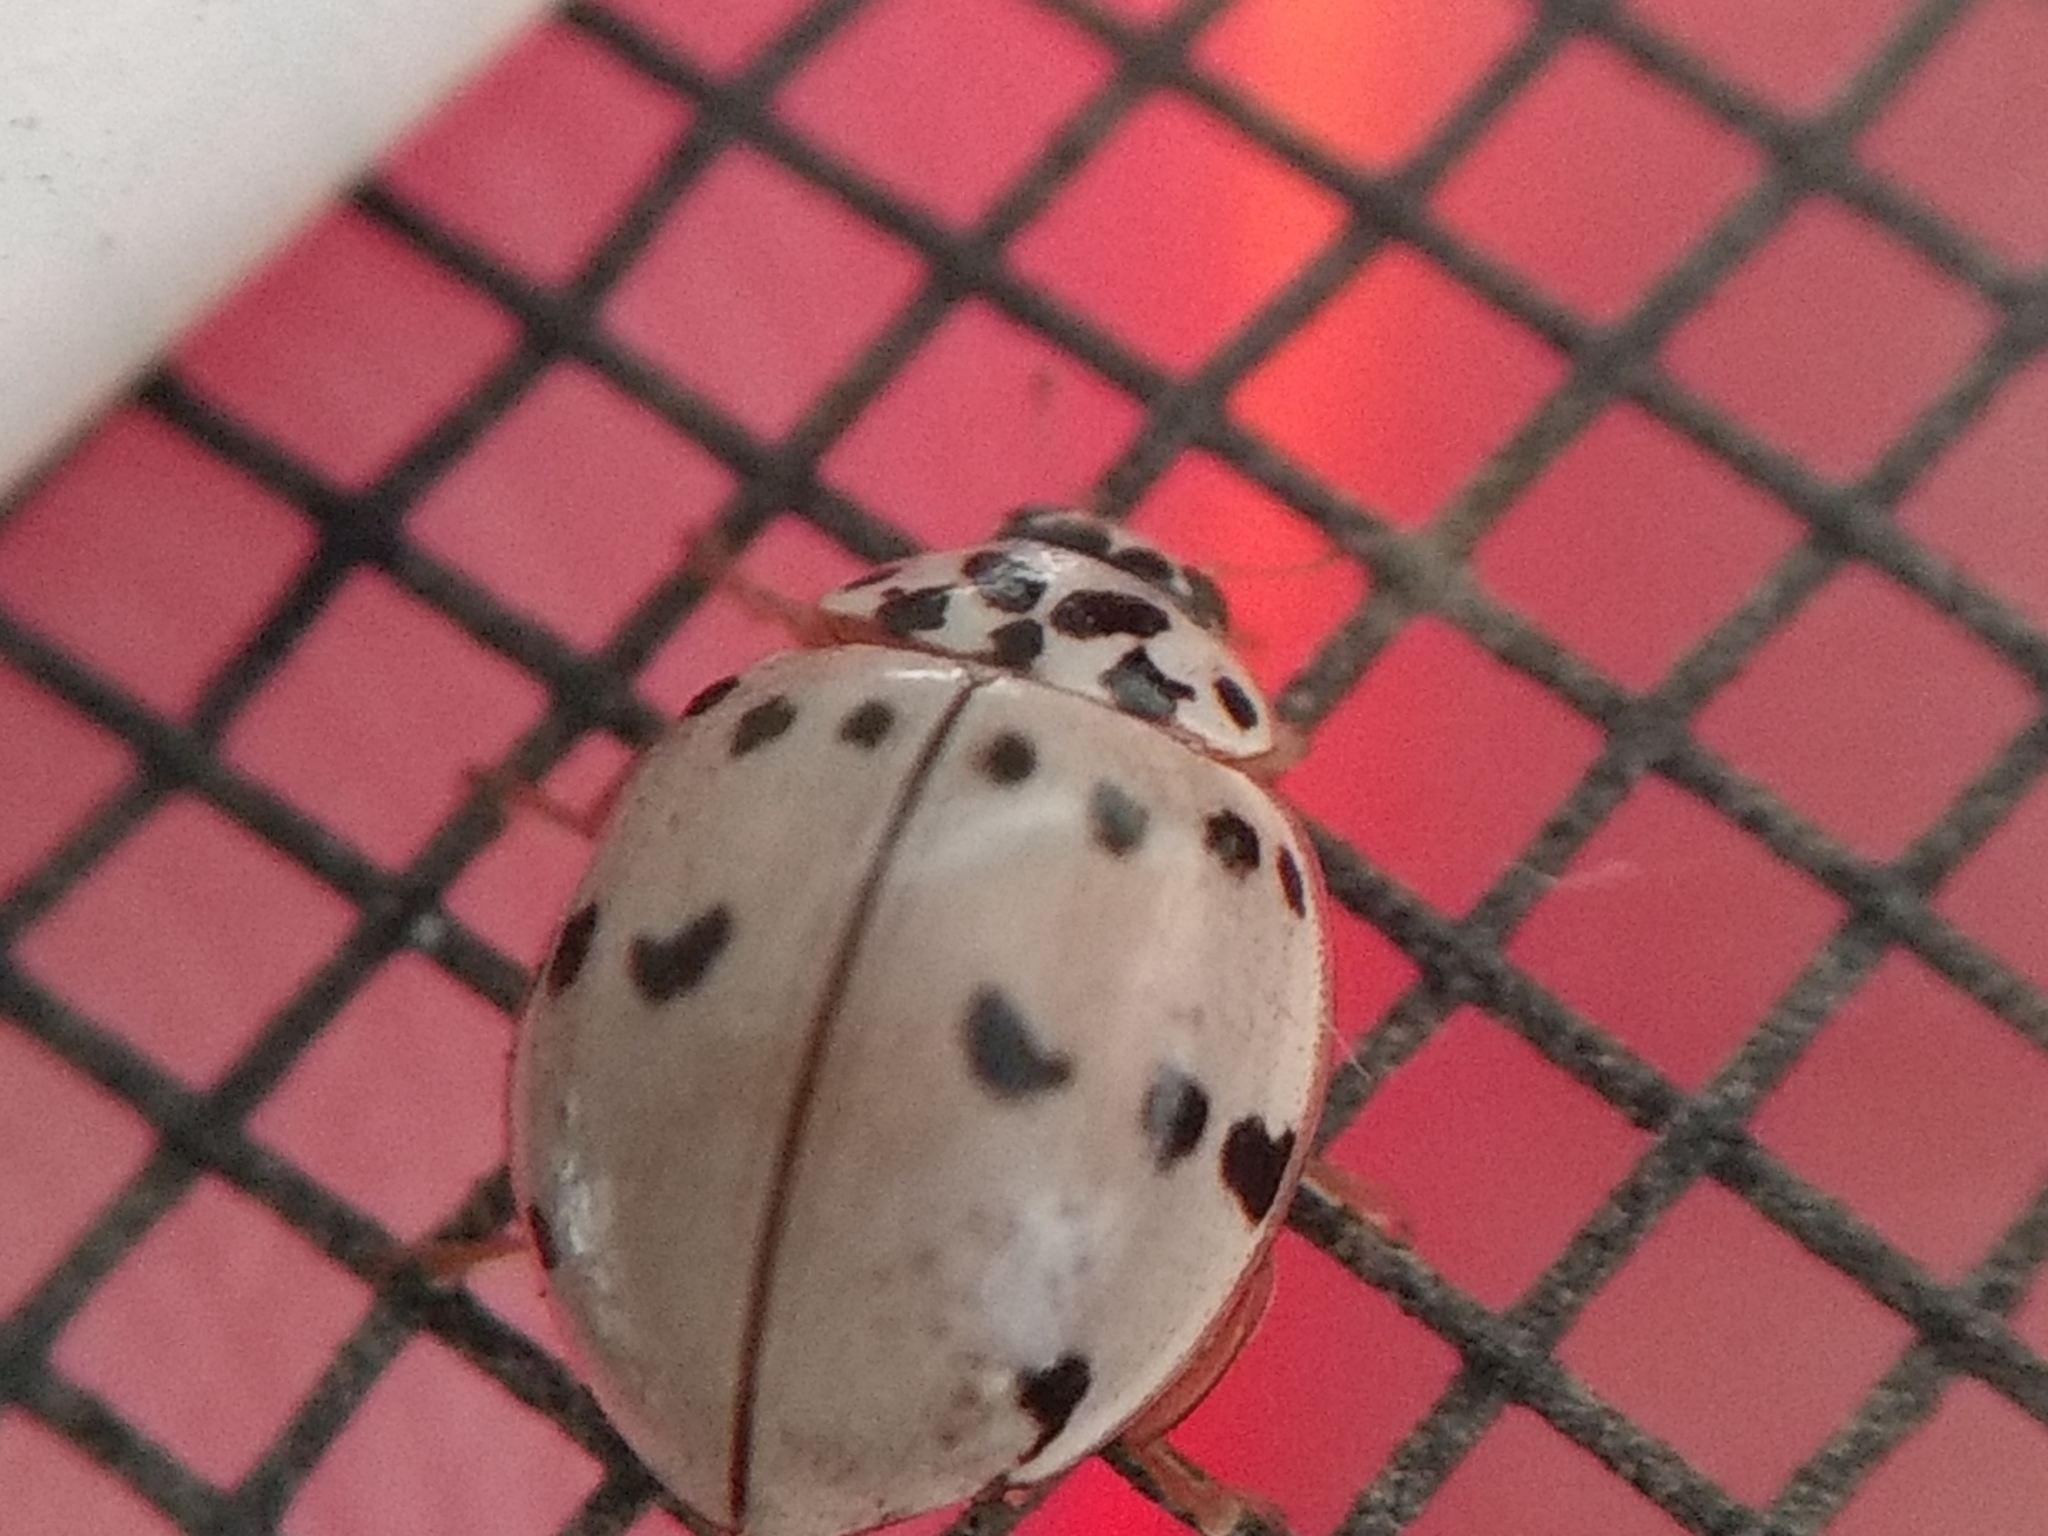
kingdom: Animalia
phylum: Arthropoda
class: Insecta
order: Coleoptera
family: Coccinellidae
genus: Olla
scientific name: Olla v-nigrum
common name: Ashy gray lady beetle
